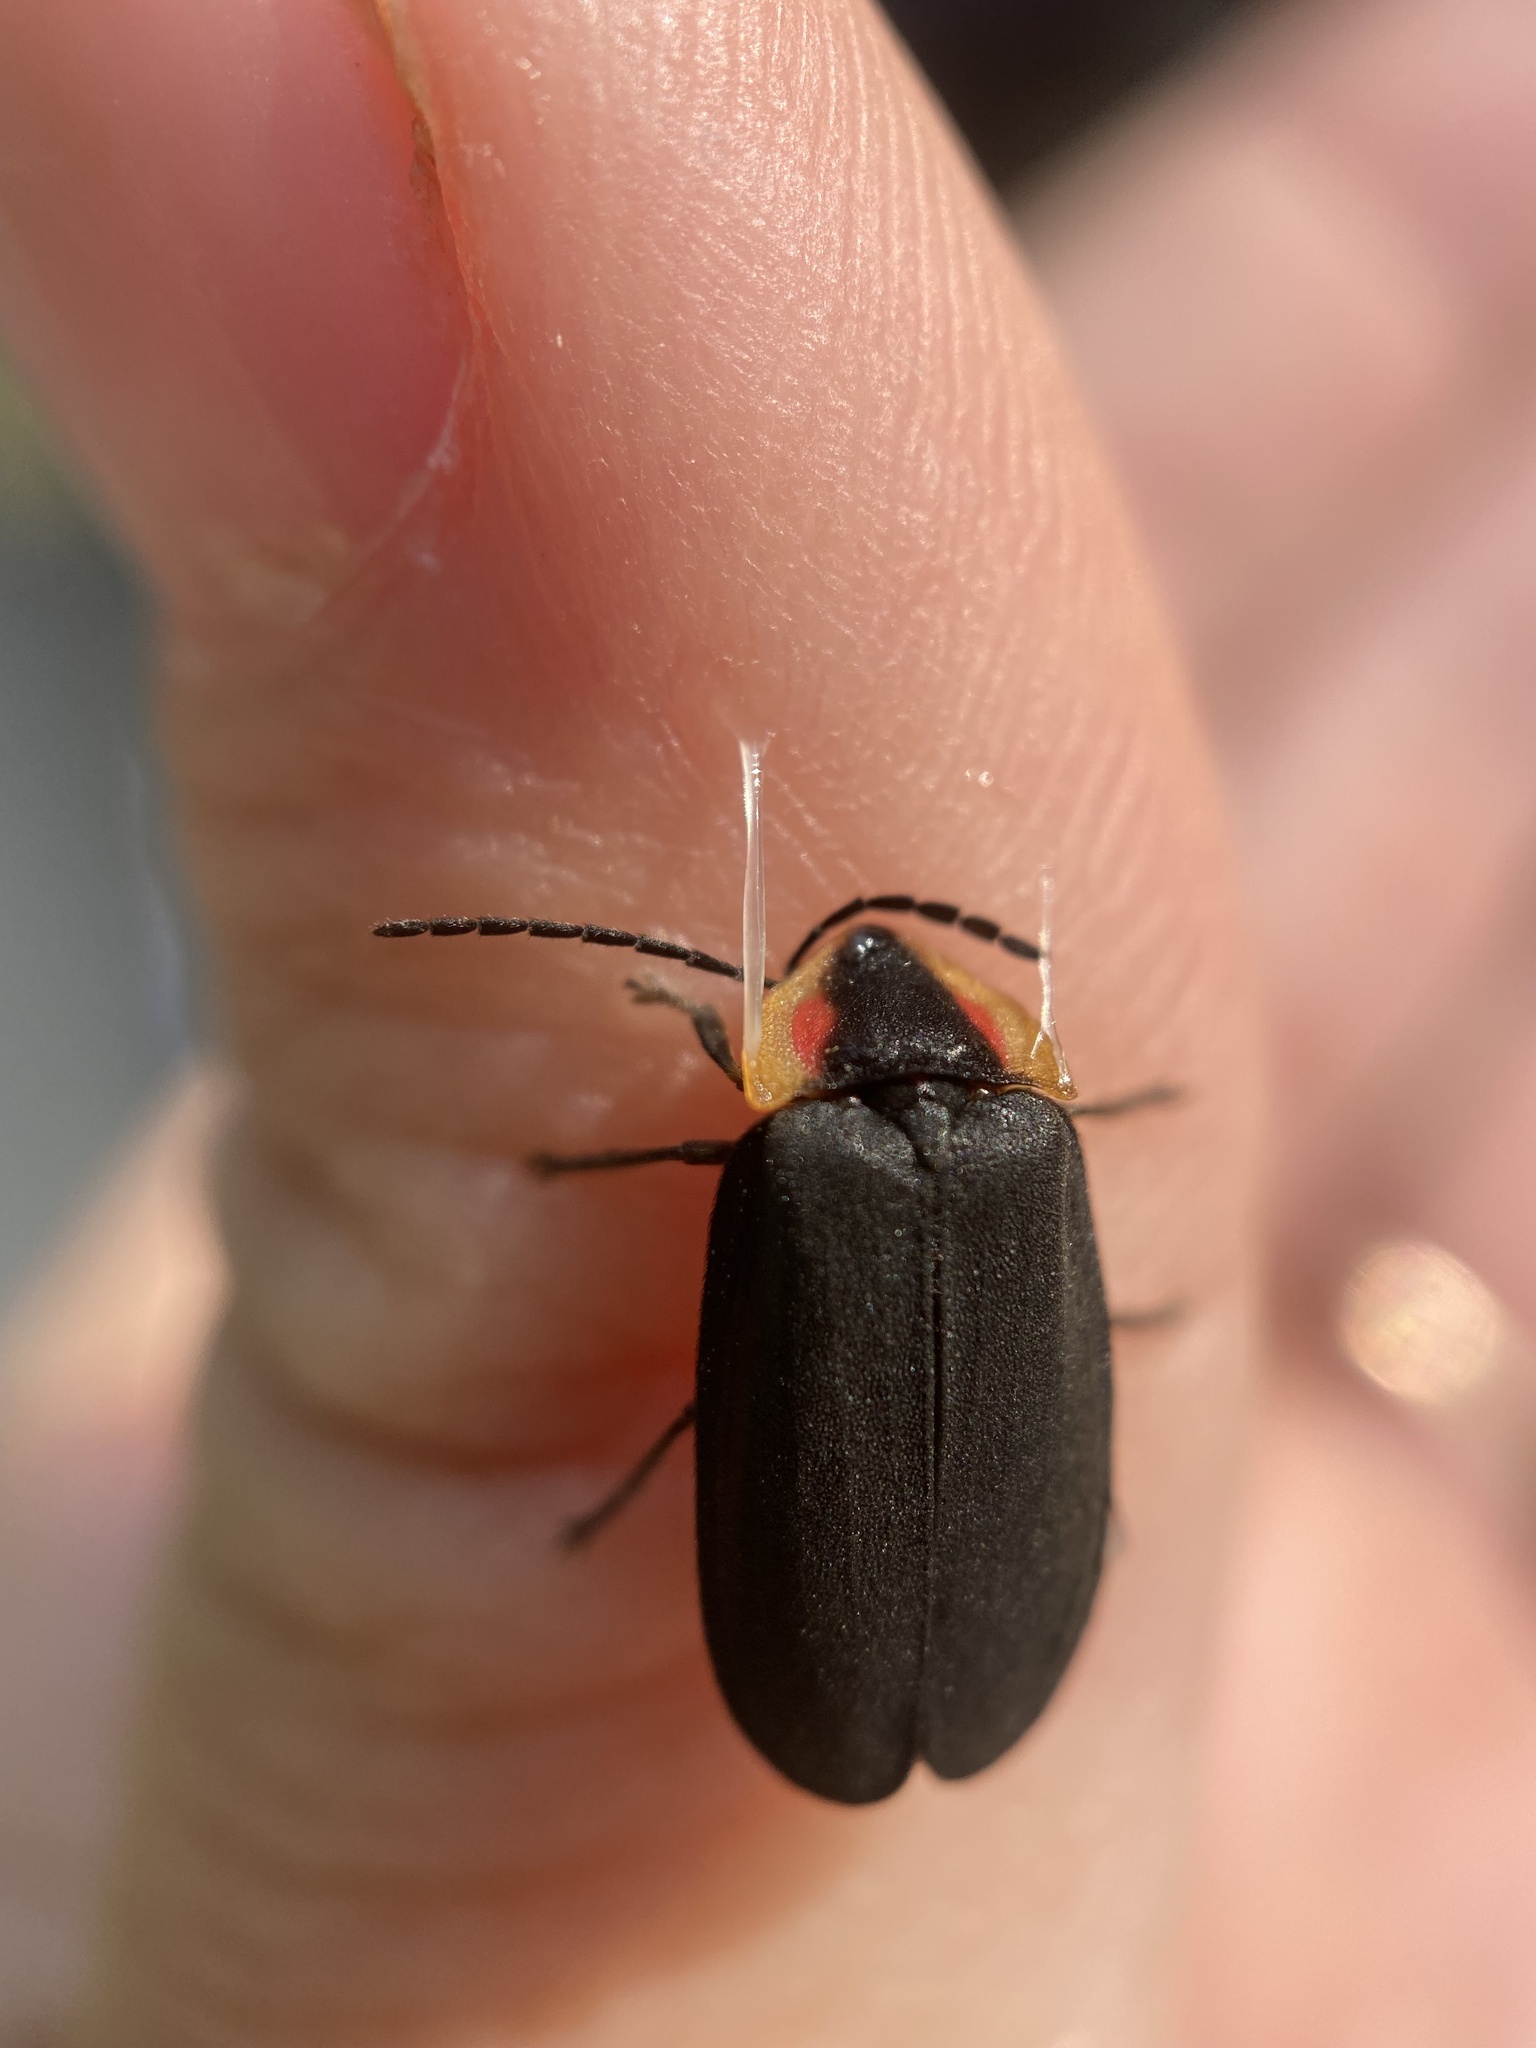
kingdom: Animalia
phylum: Arthropoda
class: Insecta
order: Coleoptera
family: Lampyridae
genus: Lucidota
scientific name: Lucidota atra
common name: Black firefly
